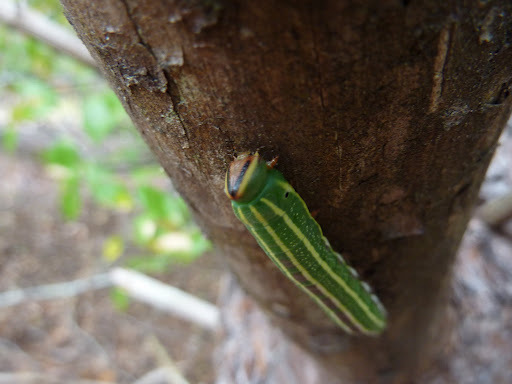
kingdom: Animalia
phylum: Arthropoda
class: Insecta
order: Lepidoptera
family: Sphingidae
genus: Lapara
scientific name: Lapara coniferarum
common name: Southern pine sphinx
